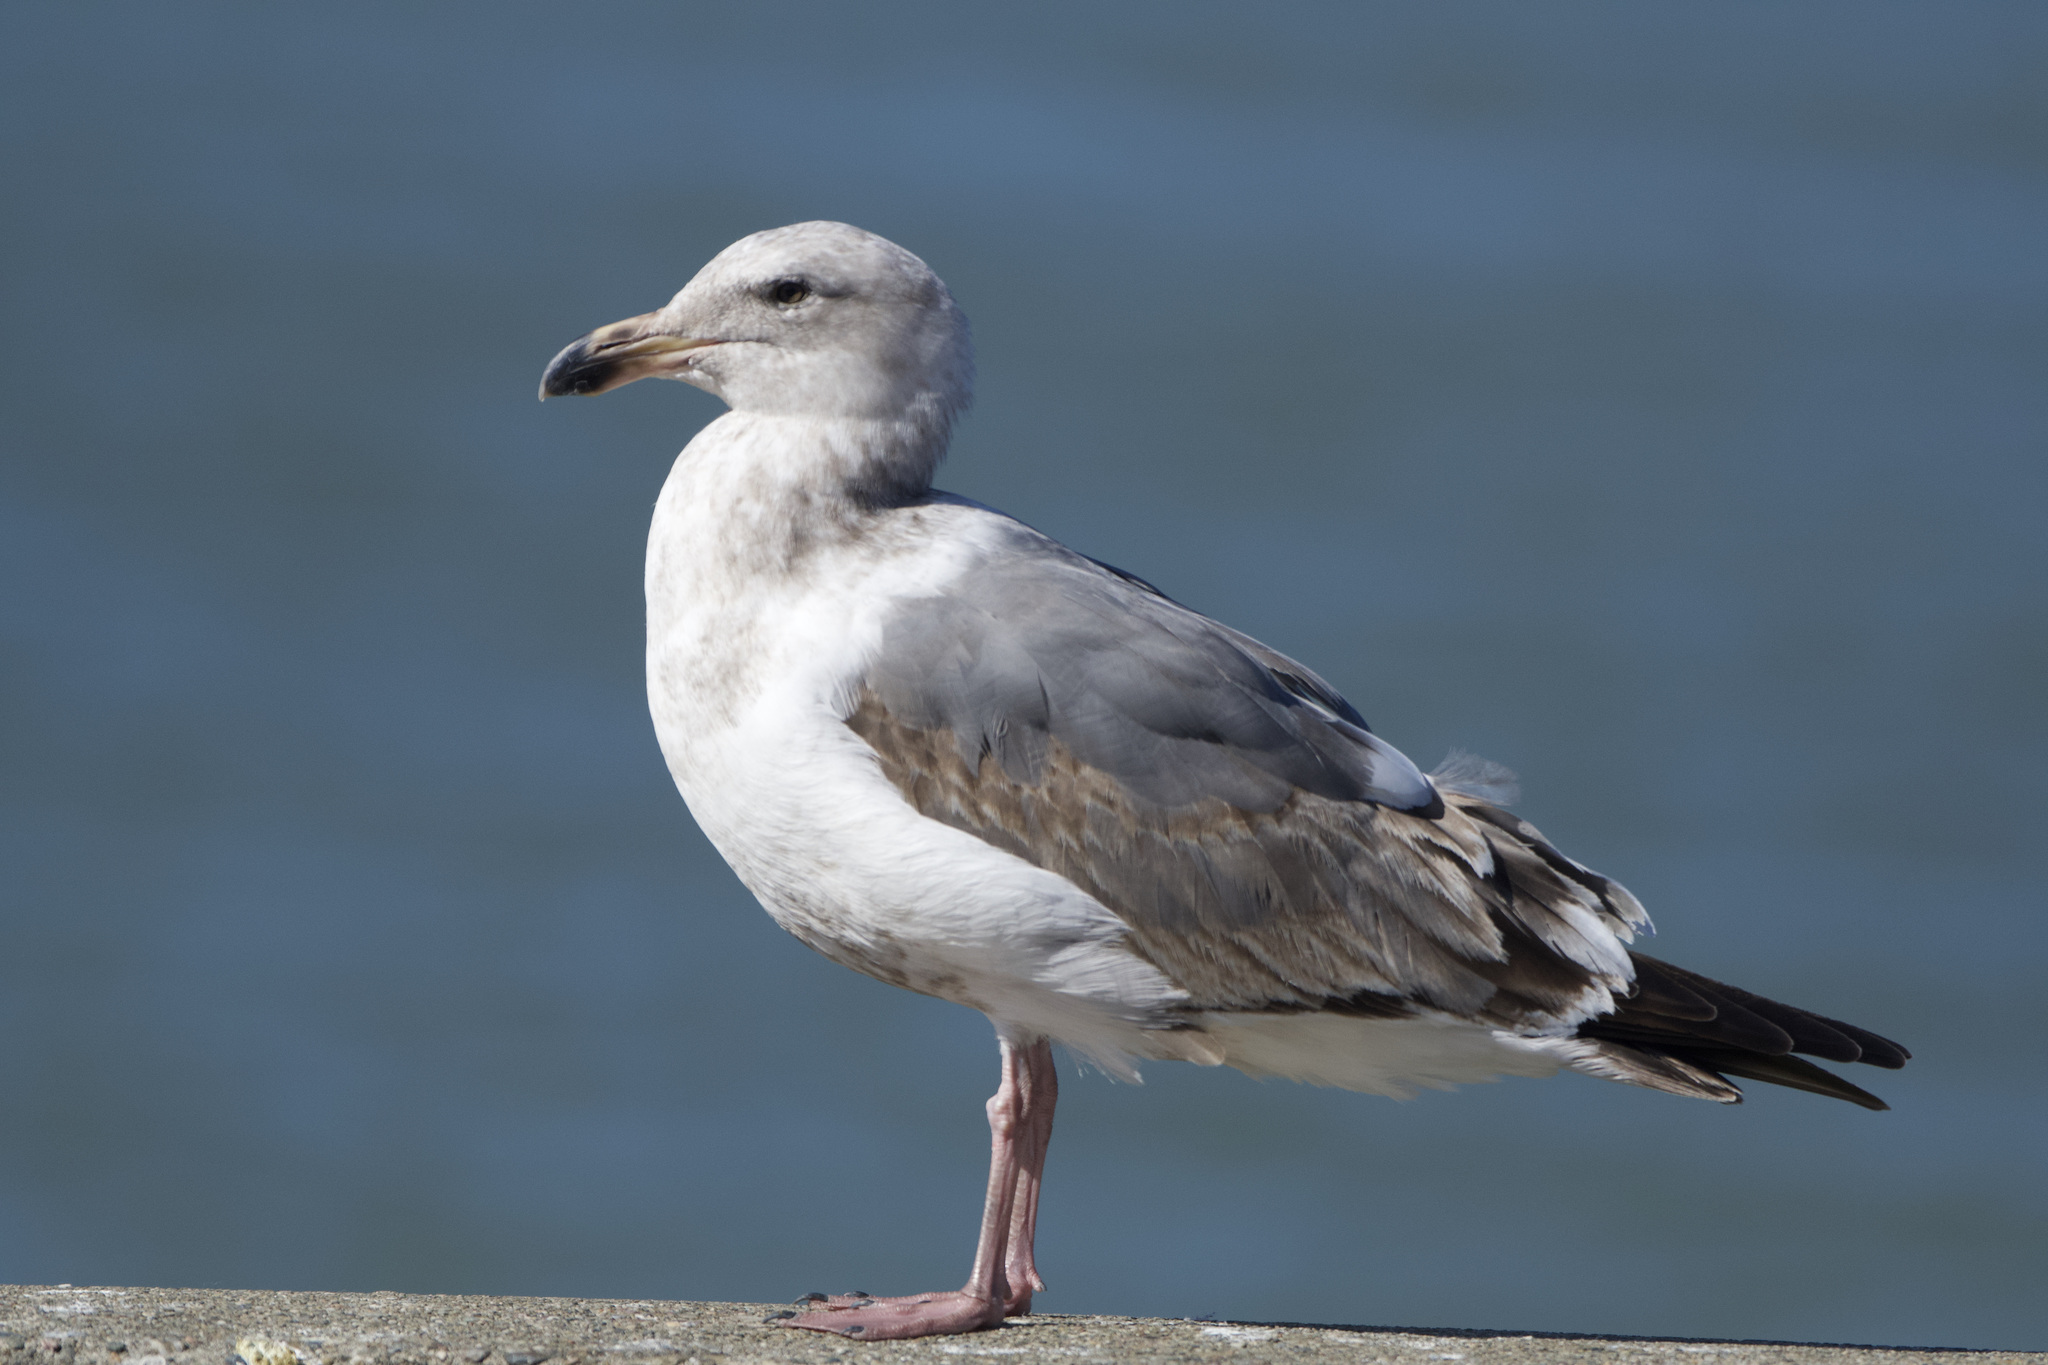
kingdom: Animalia
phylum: Chordata
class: Aves
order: Charadriiformes
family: Laridae
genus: Larus
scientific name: Larus occidentalis
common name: Western gull
